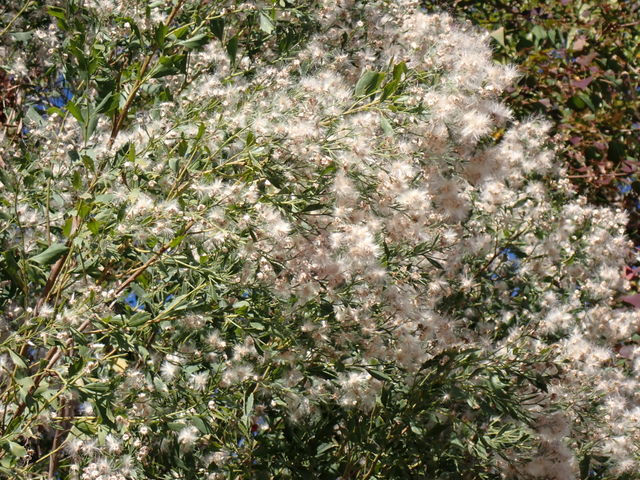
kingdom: Plantae
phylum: Tracheophyta
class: Magnoliopsida
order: Asterales
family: Asteraceae
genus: Baccharis
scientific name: Baccharis halimifolia
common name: Eastern baccharis
